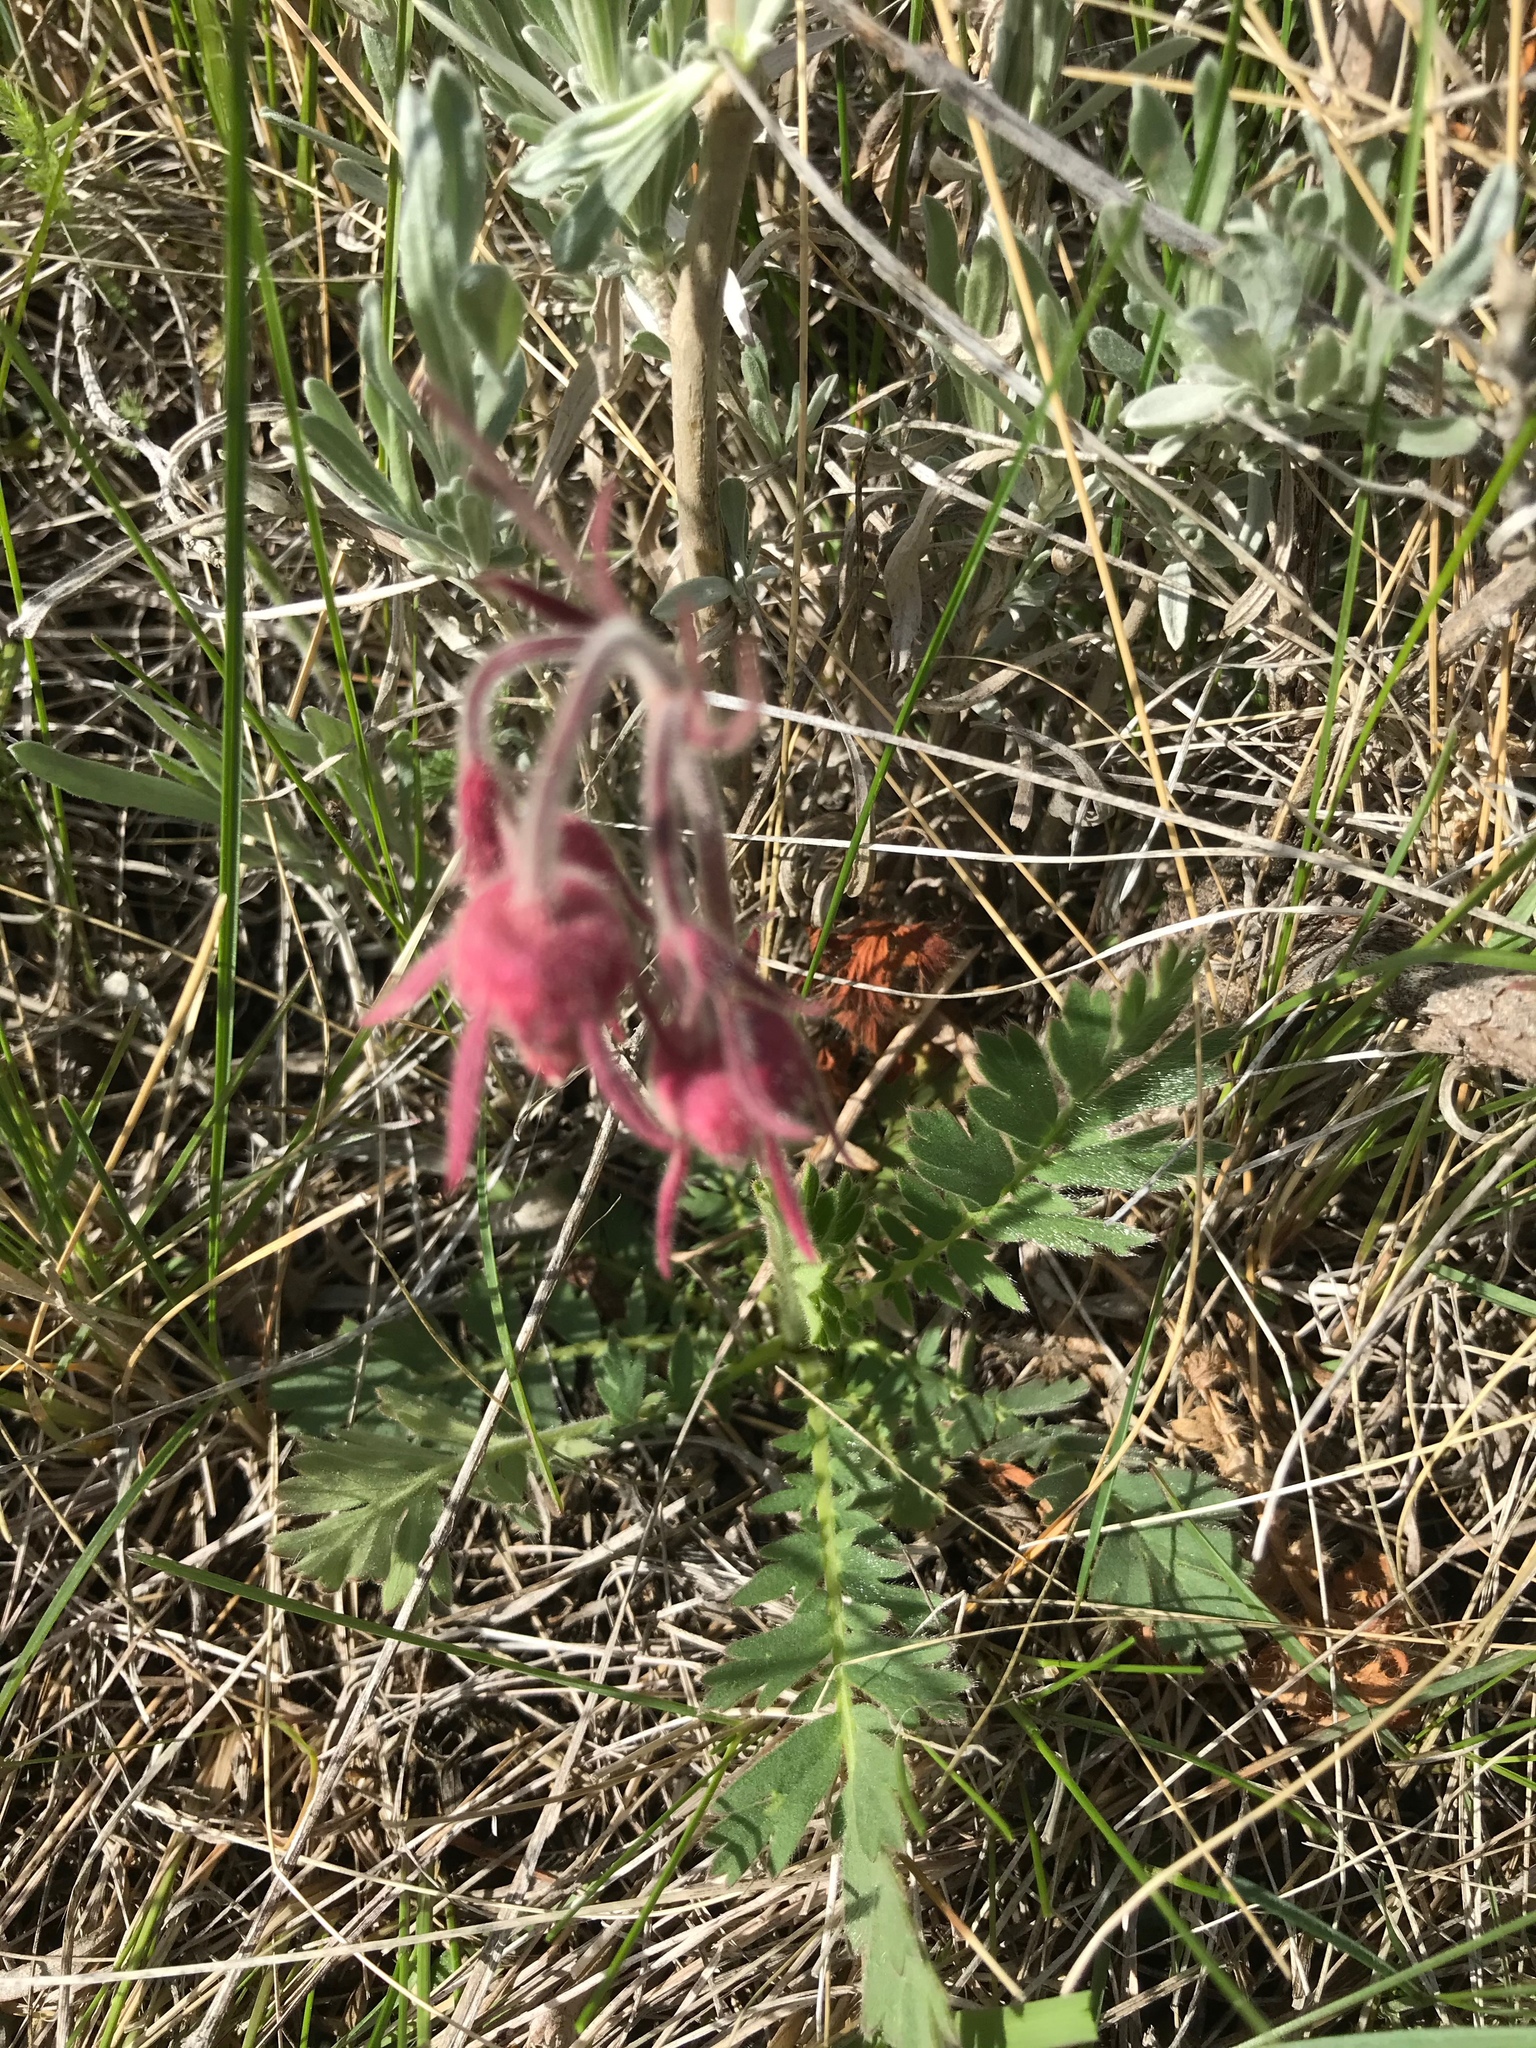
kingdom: Plantae
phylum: Tracheophyta
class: Magnoliopsida
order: Rosales
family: Rosaceae
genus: Geum
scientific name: Geum triflorum
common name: Old man's whiskers
